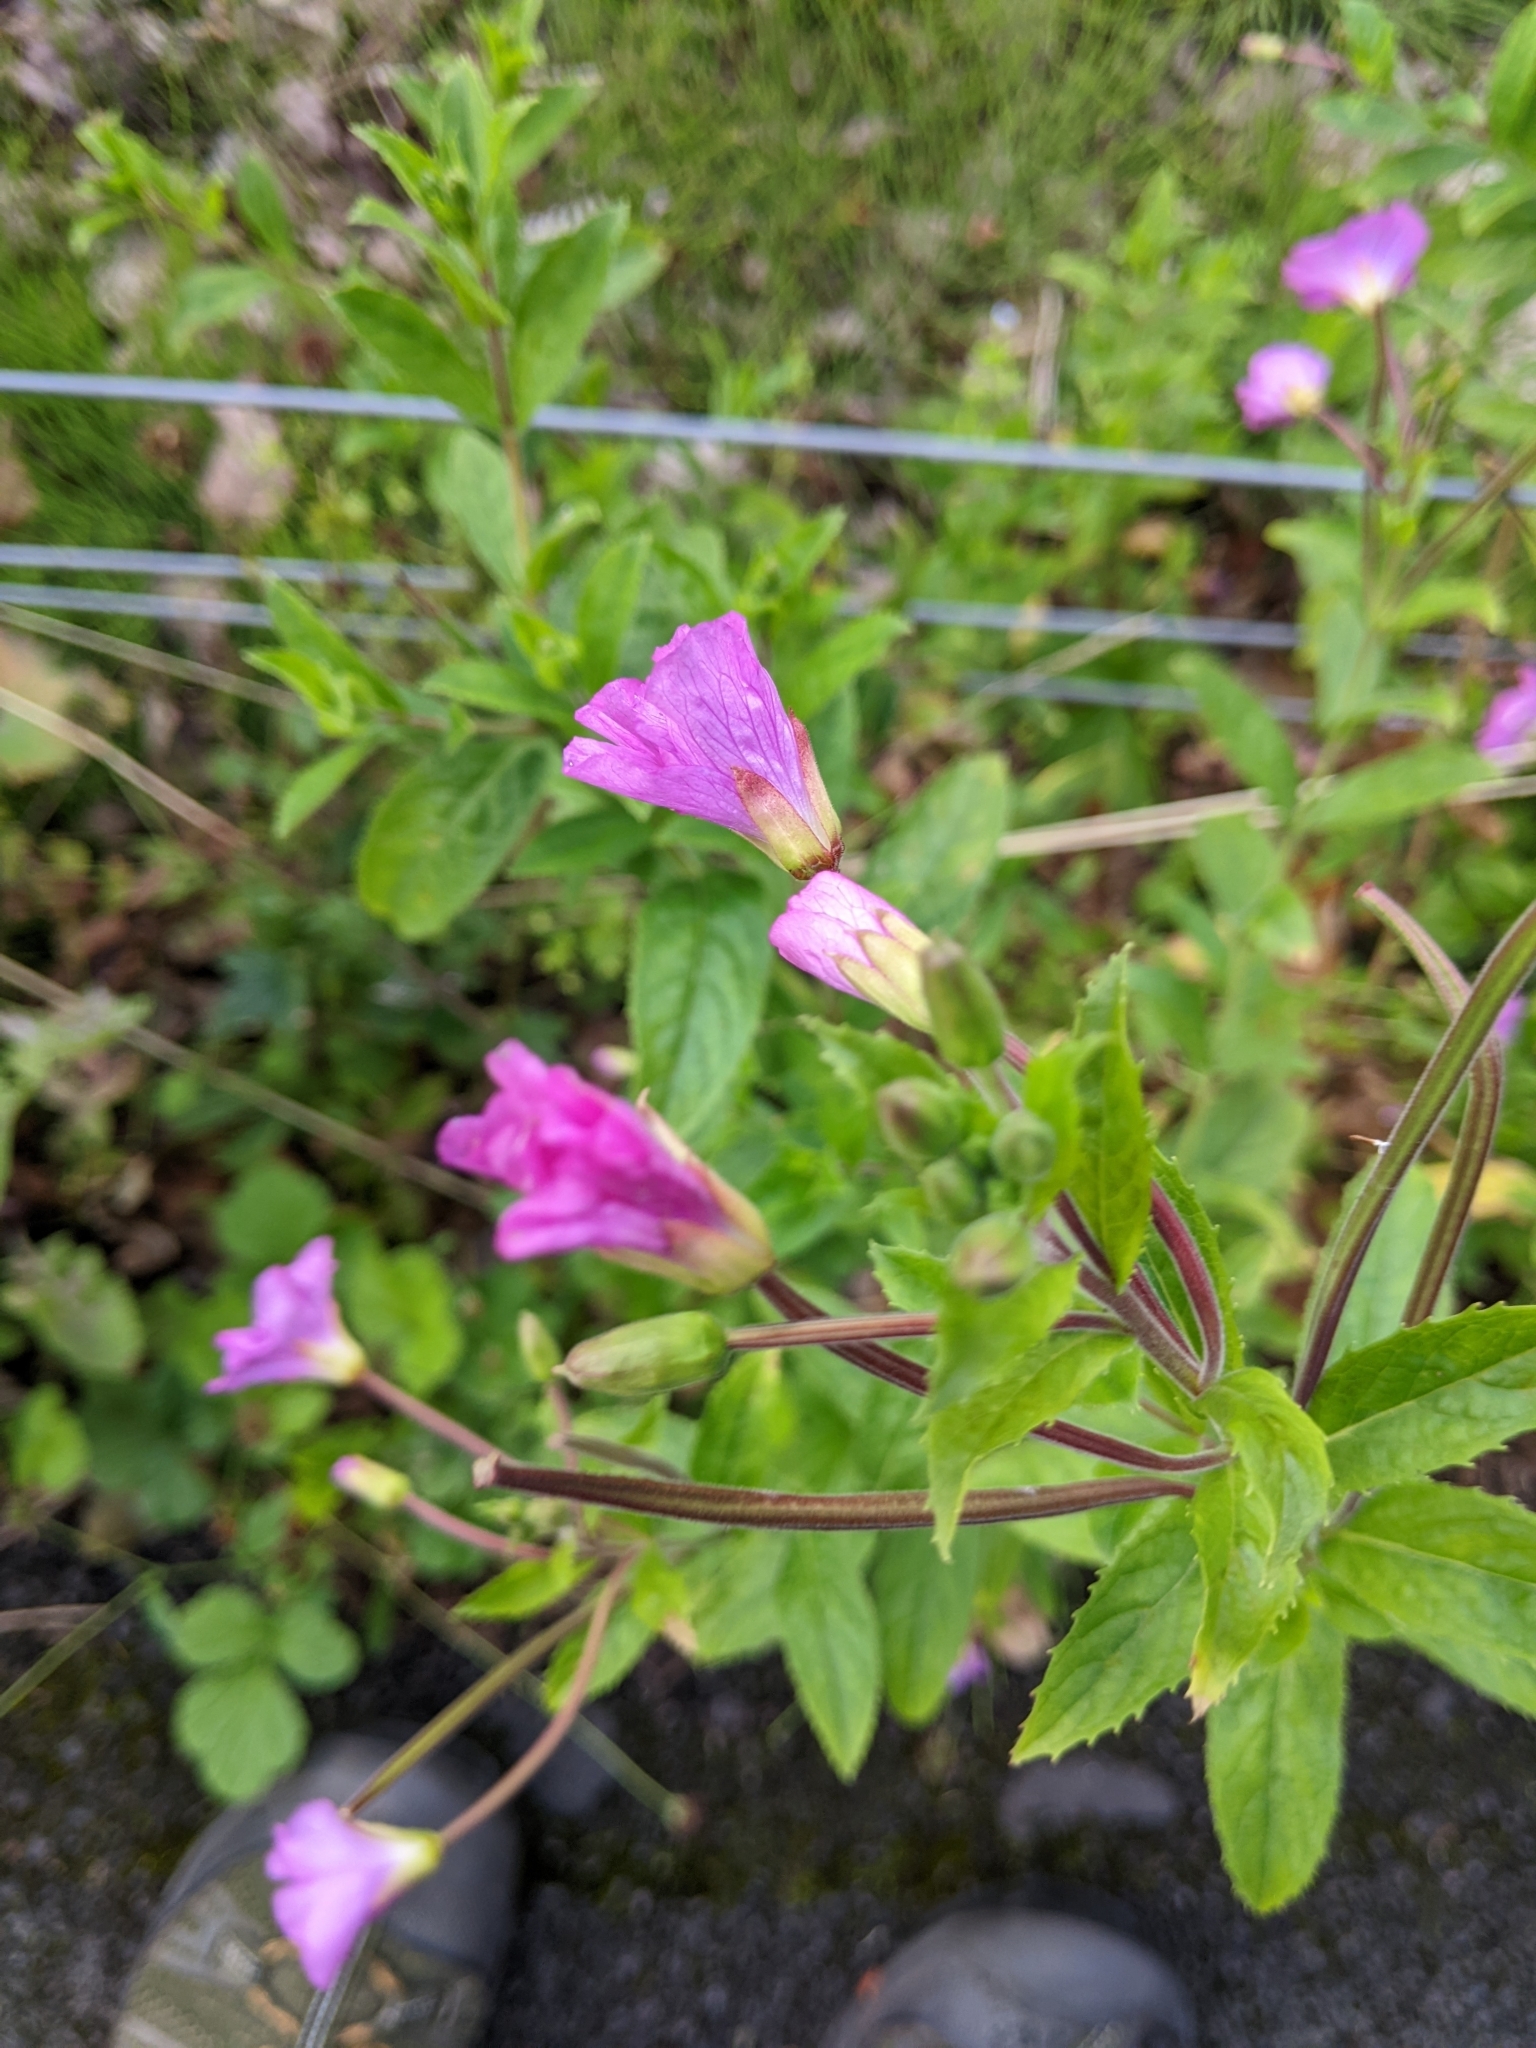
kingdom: Plantae
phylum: Tracheophyta
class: Magnoliopsida
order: Myrtales
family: Onagraceae
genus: Epilobium
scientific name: Epilobium hirsutum
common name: Great willowherb
